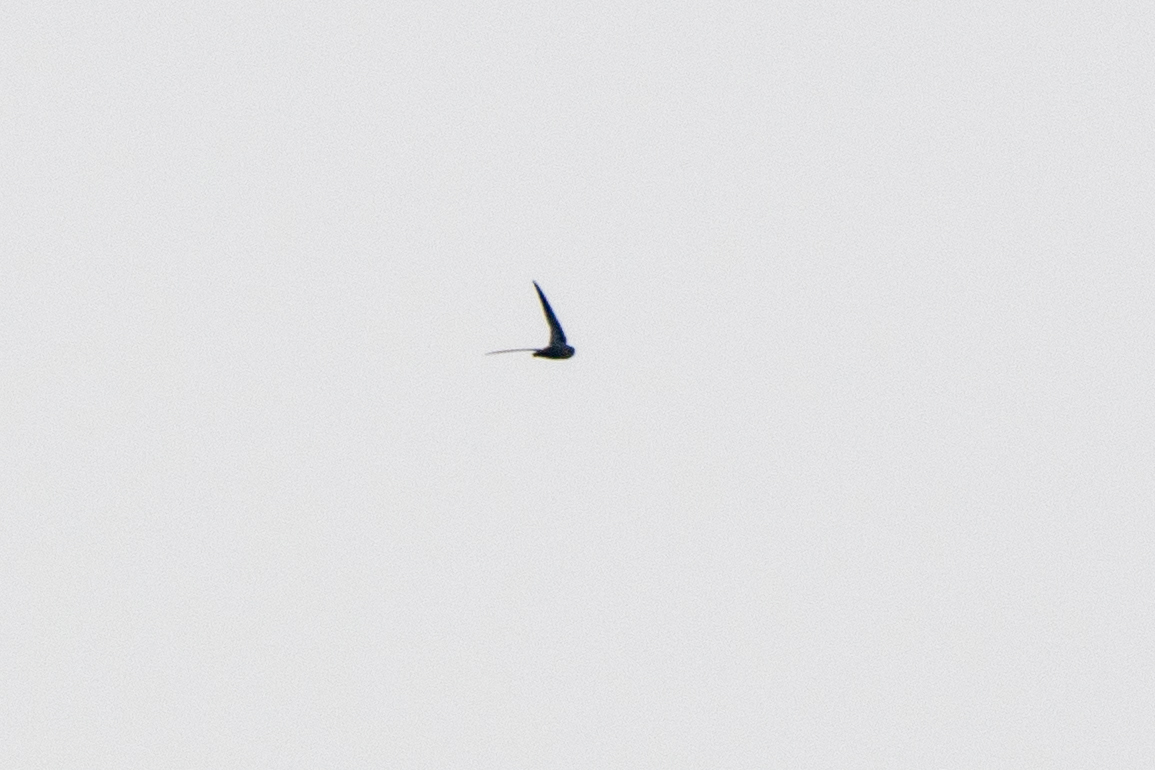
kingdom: Animalia
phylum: Chordata
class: Aves
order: Apodiformes
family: Apodidae
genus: Chaetura
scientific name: Chaetura pelagica
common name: Chimney swift
